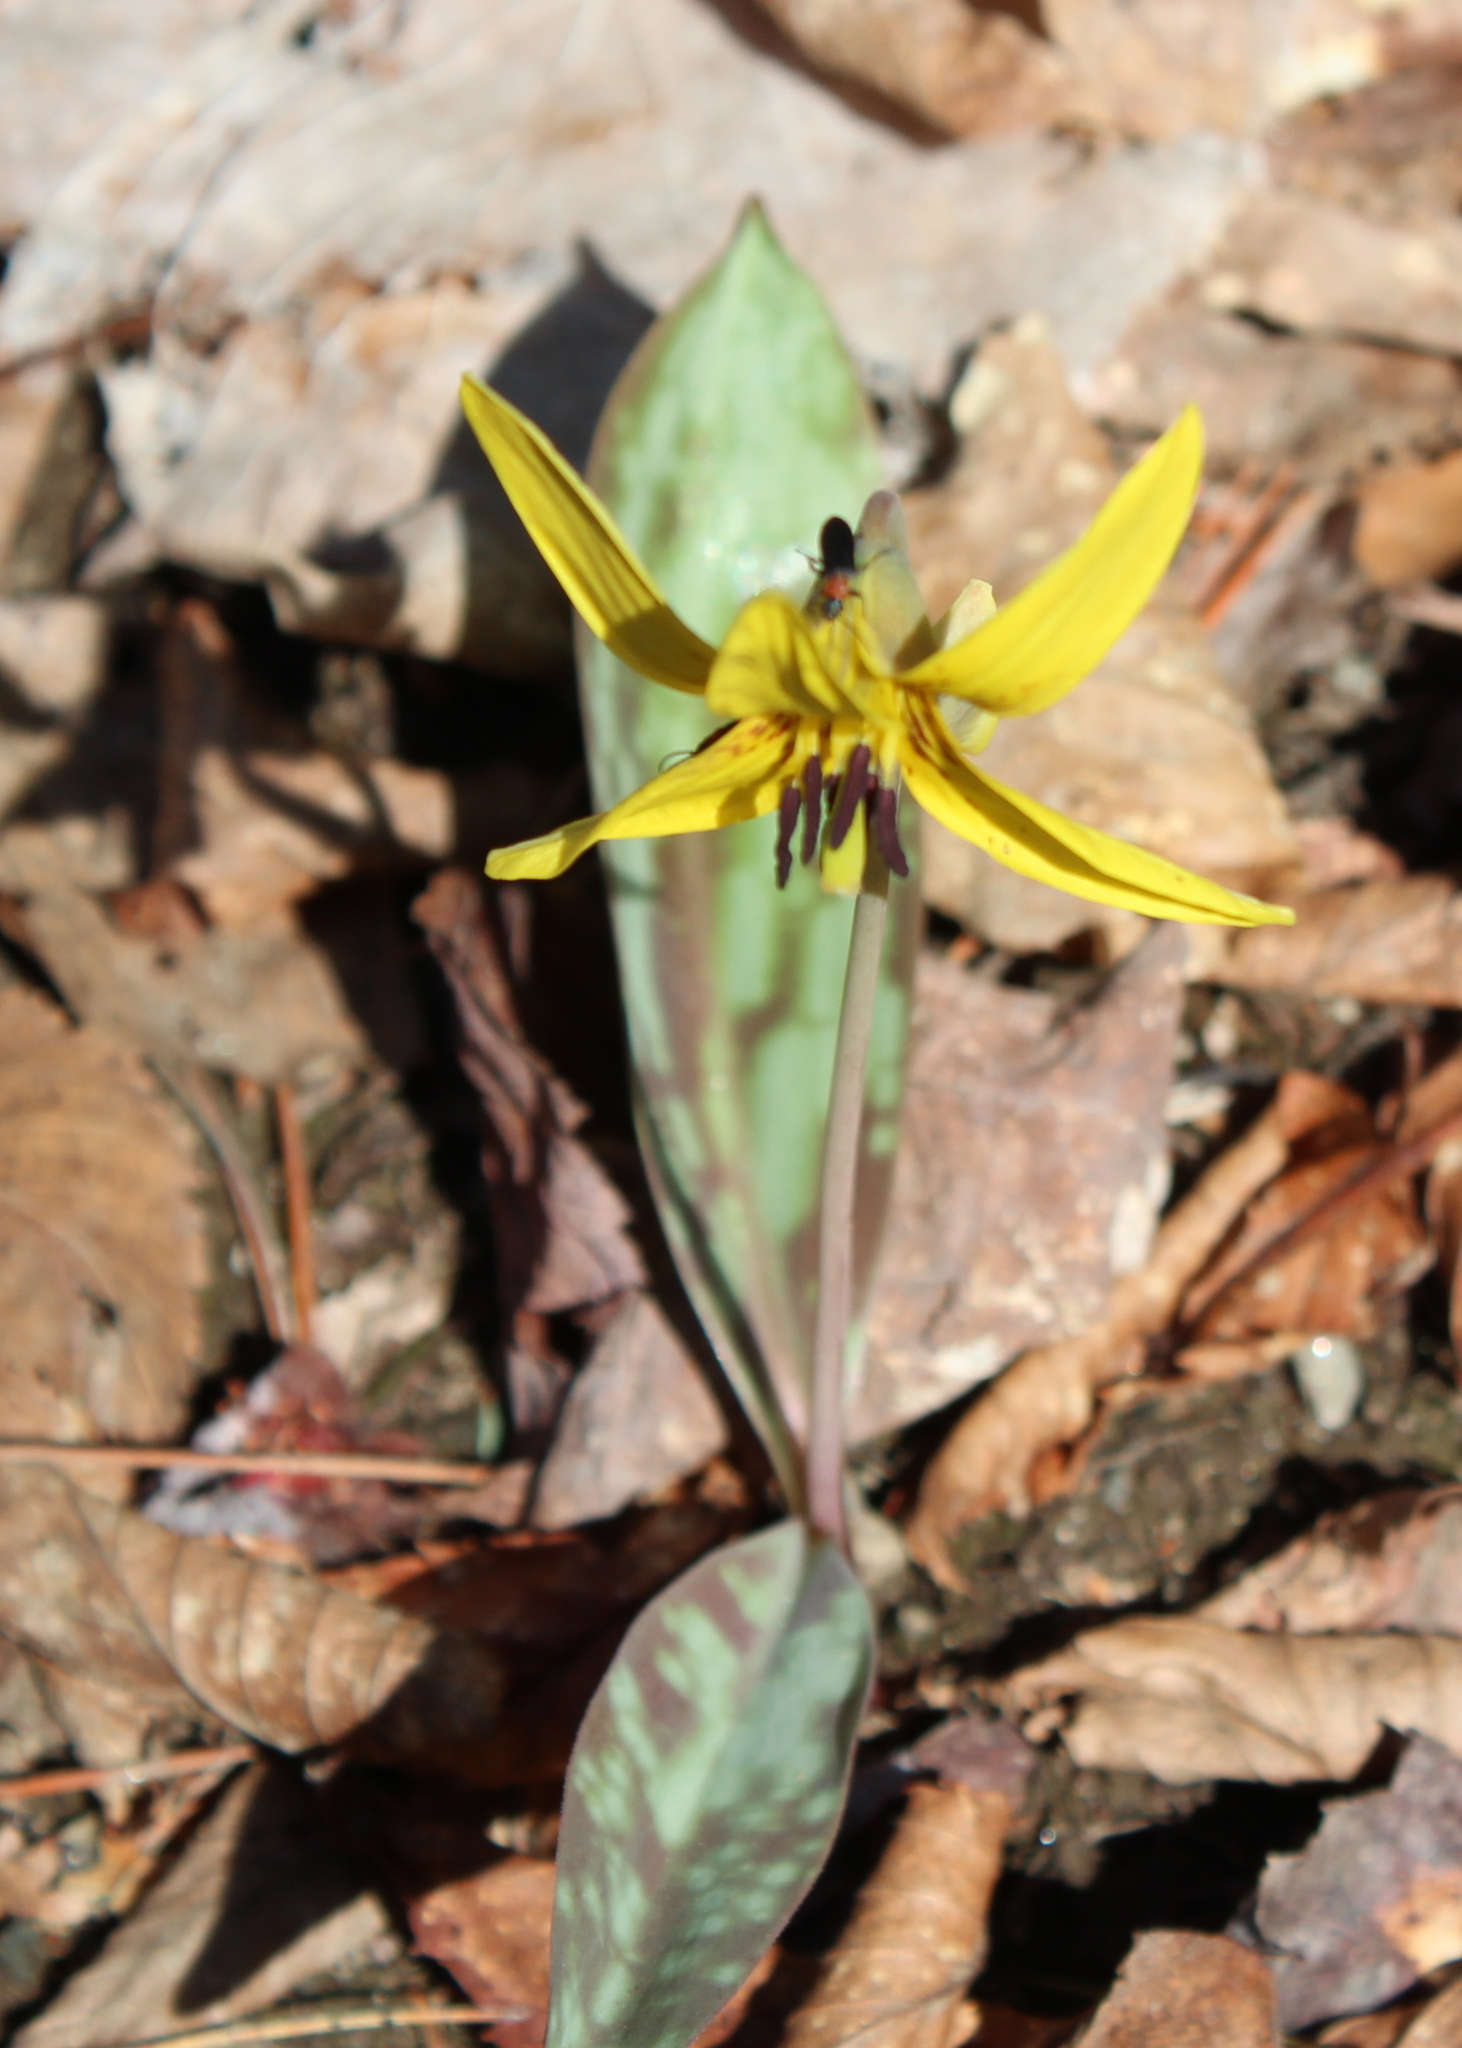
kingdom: Plantae
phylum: Tracheophyta
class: Liliopsida
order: Liliales
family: Liliaceae
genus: Erythronium
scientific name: Erythronium americanum
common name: Yellow adder's-tongue
